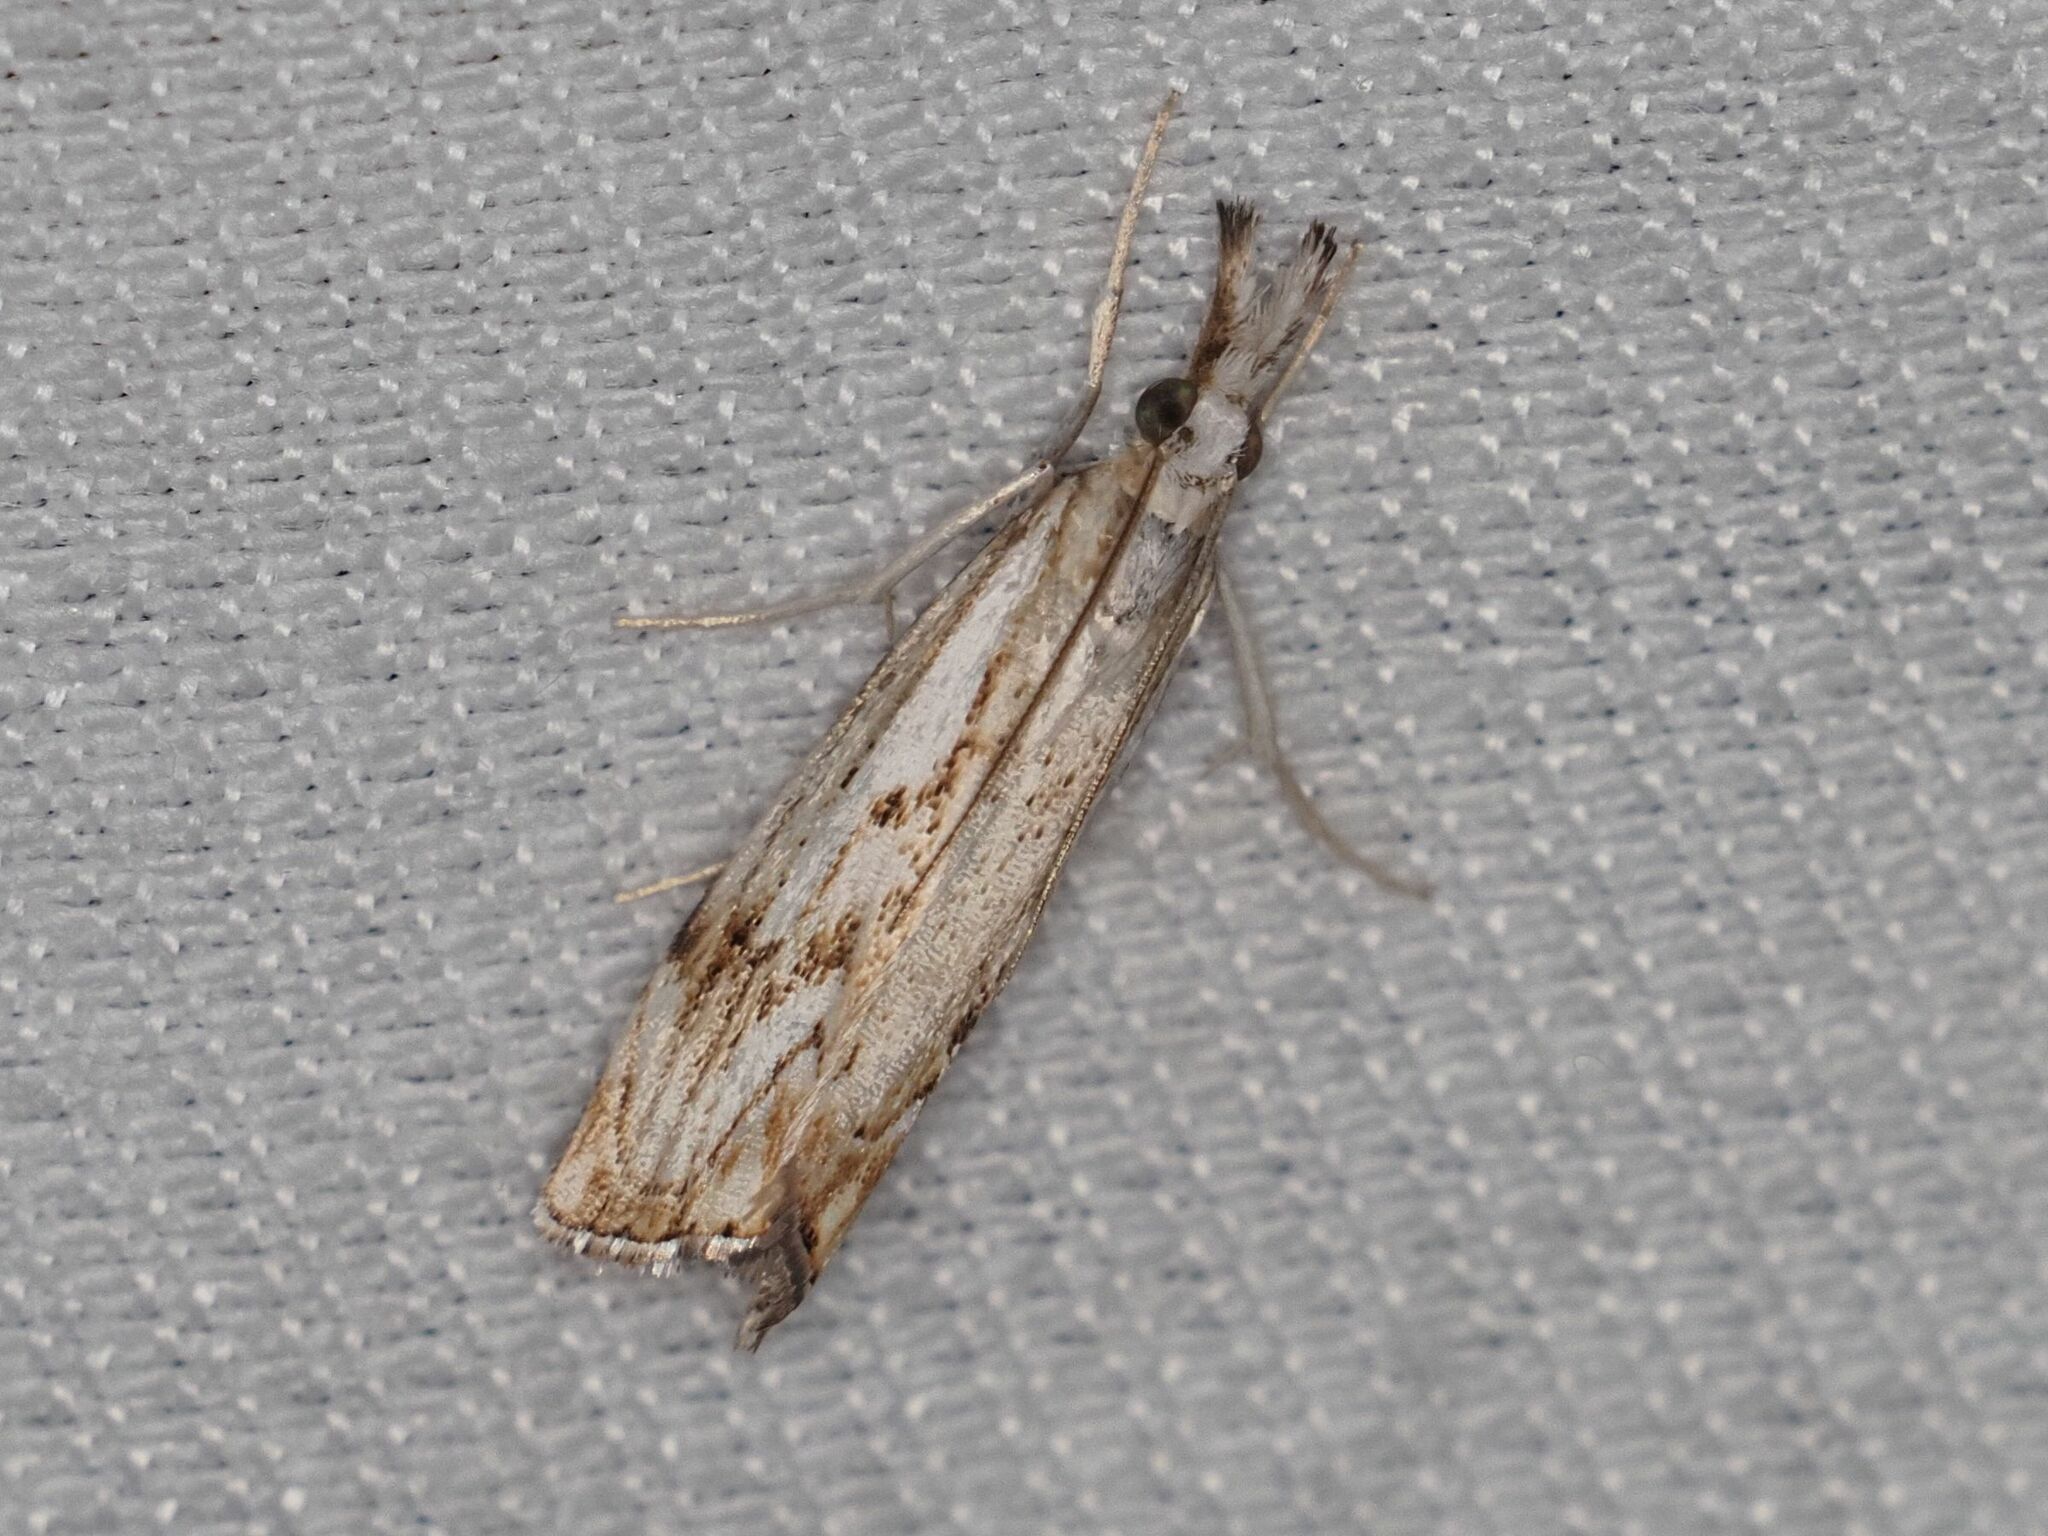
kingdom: Animalia
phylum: Arthropoda
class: Insecta
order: Lepidoptera
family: Crambidae
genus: Catoptria
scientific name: Catoptria falsella
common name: Chequered grass-veneer
